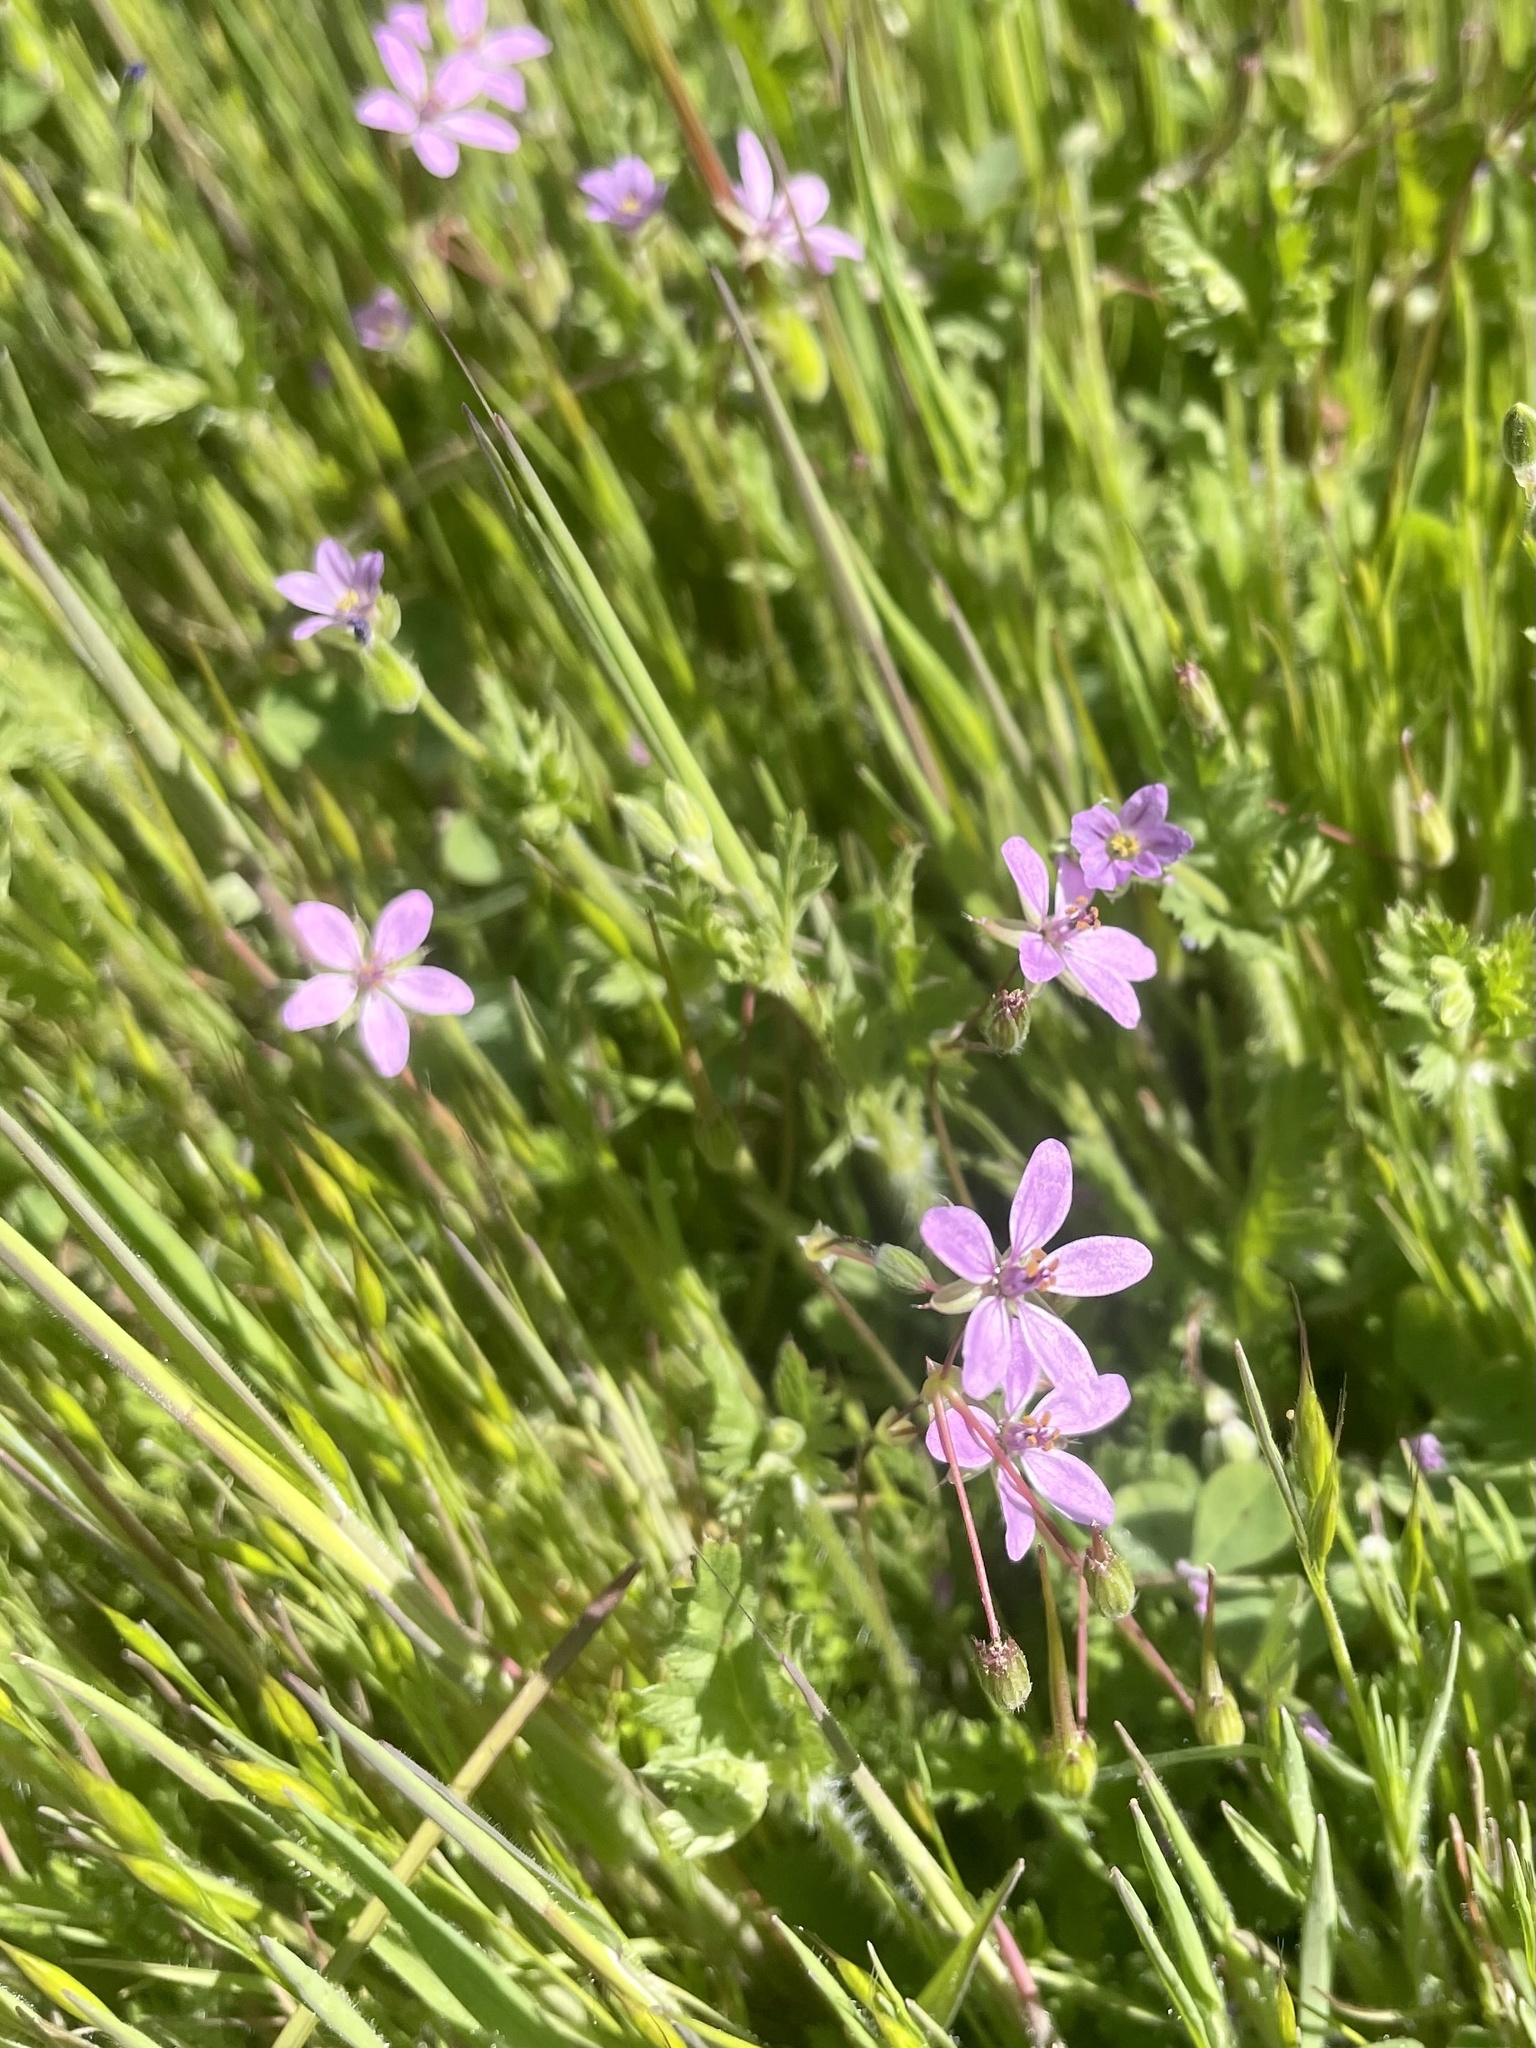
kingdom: Plantae
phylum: Tracheophyta
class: Magnoliopsida
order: Geraniales
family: Geraniaceae
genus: Erodium
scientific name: Erodium cicutarium
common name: Common stork's-bill
